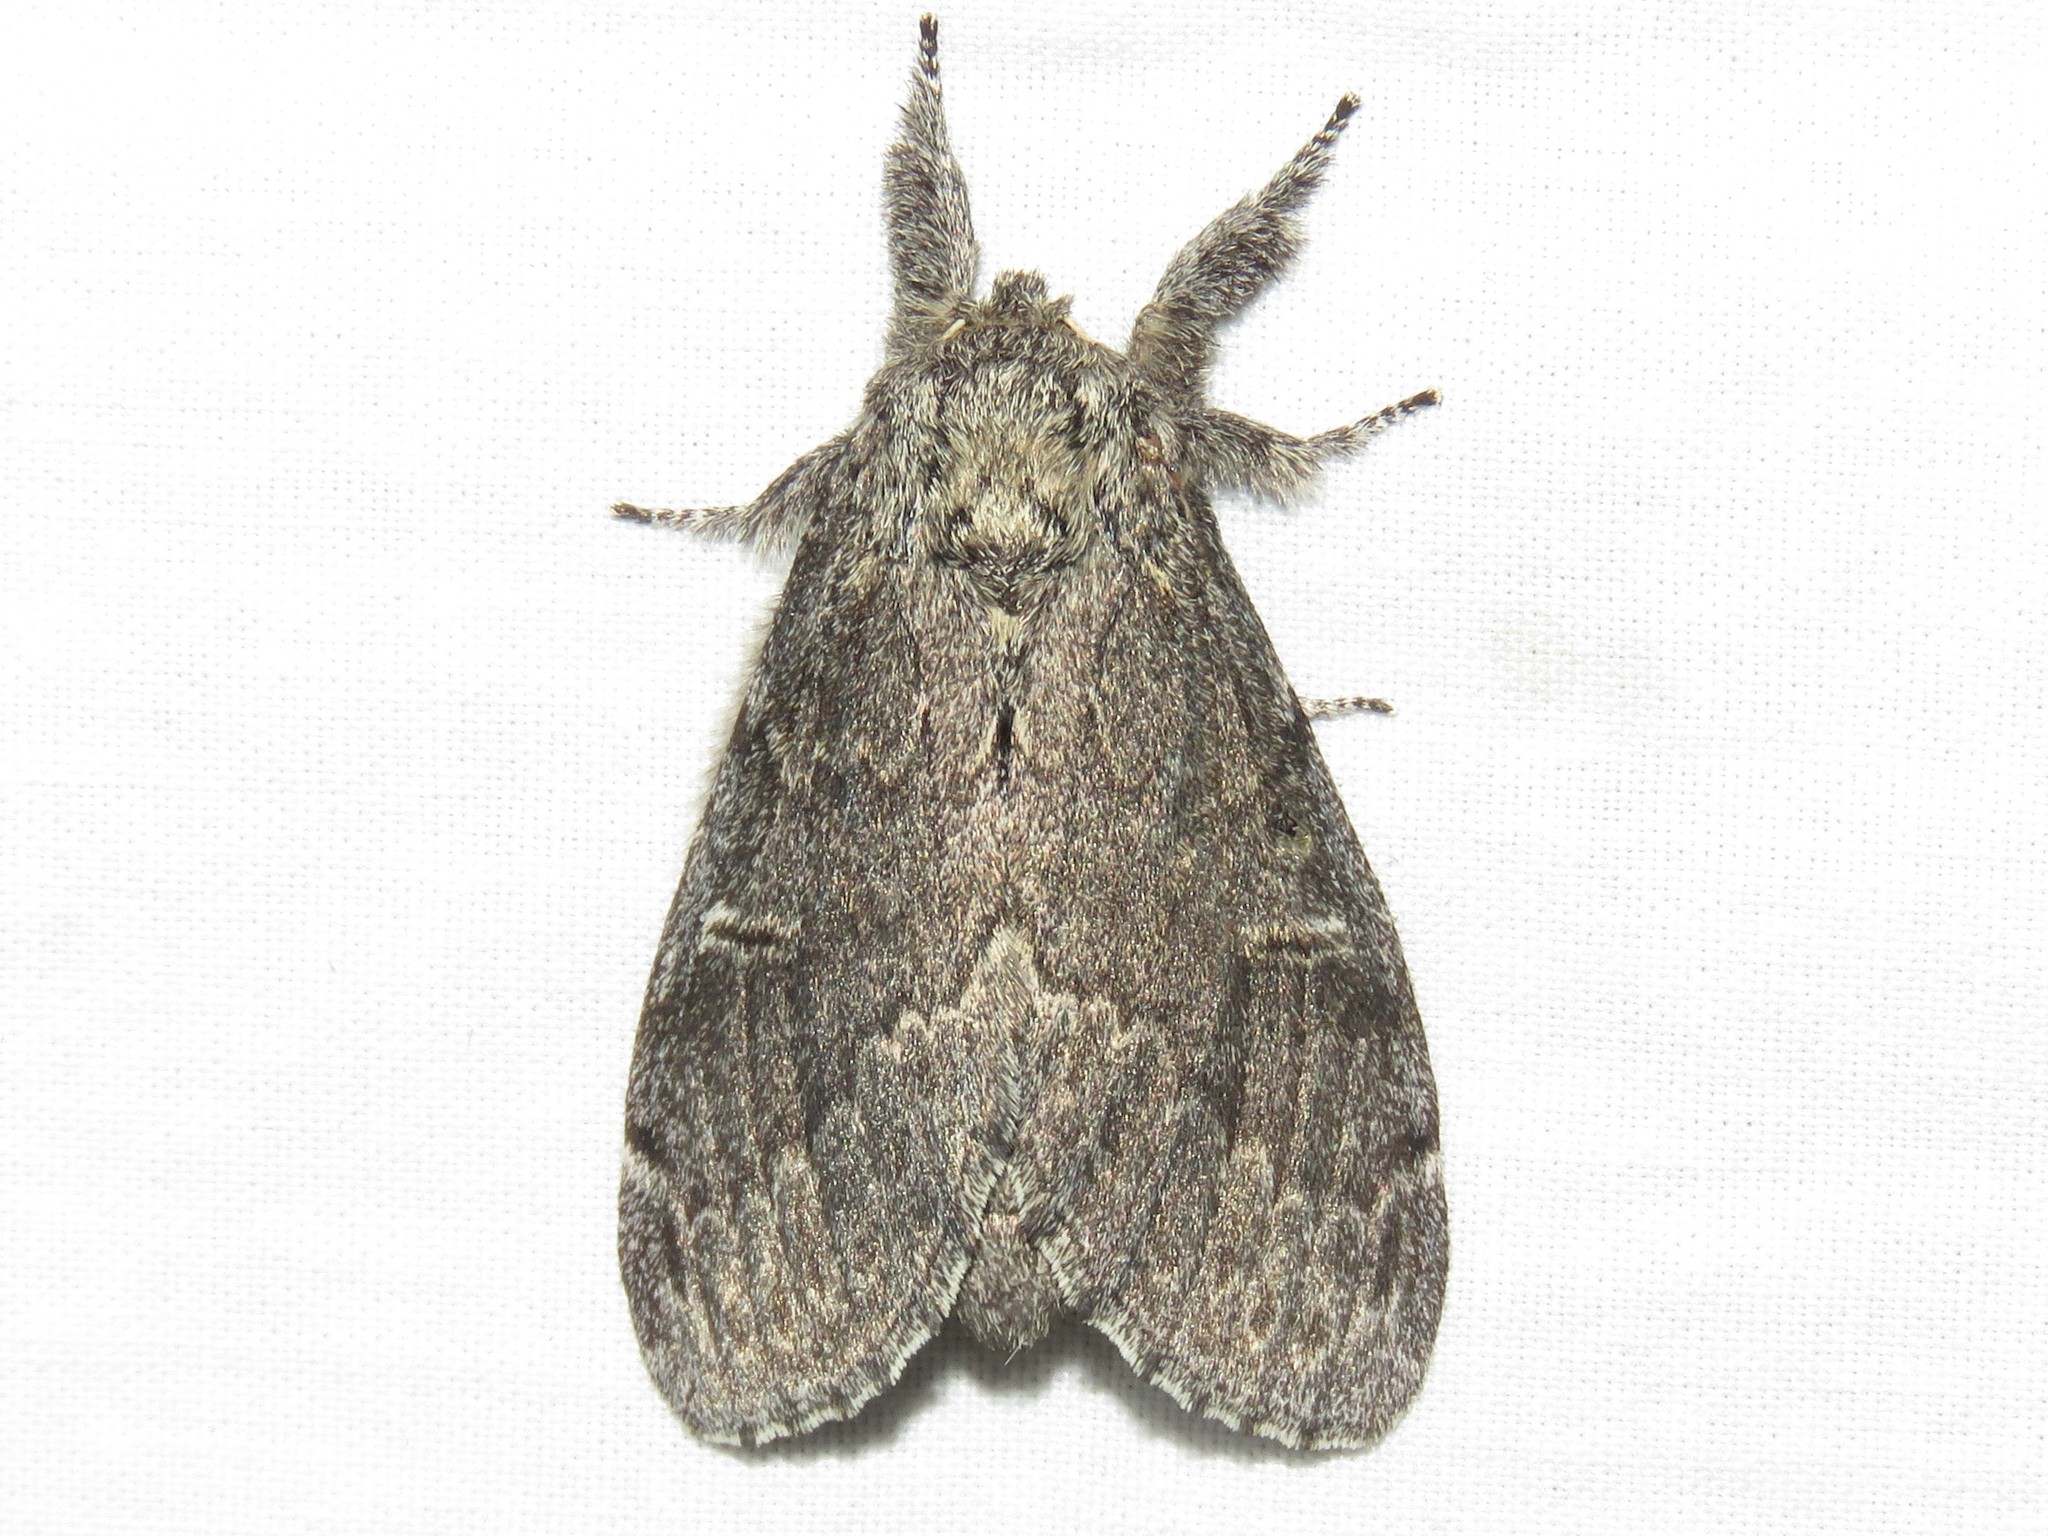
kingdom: Animalia
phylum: Arthropoda
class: Insecta
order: Lepidoptera
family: Notodontidae
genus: Notodonta
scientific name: Notodonta torva
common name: Large dark prominent
